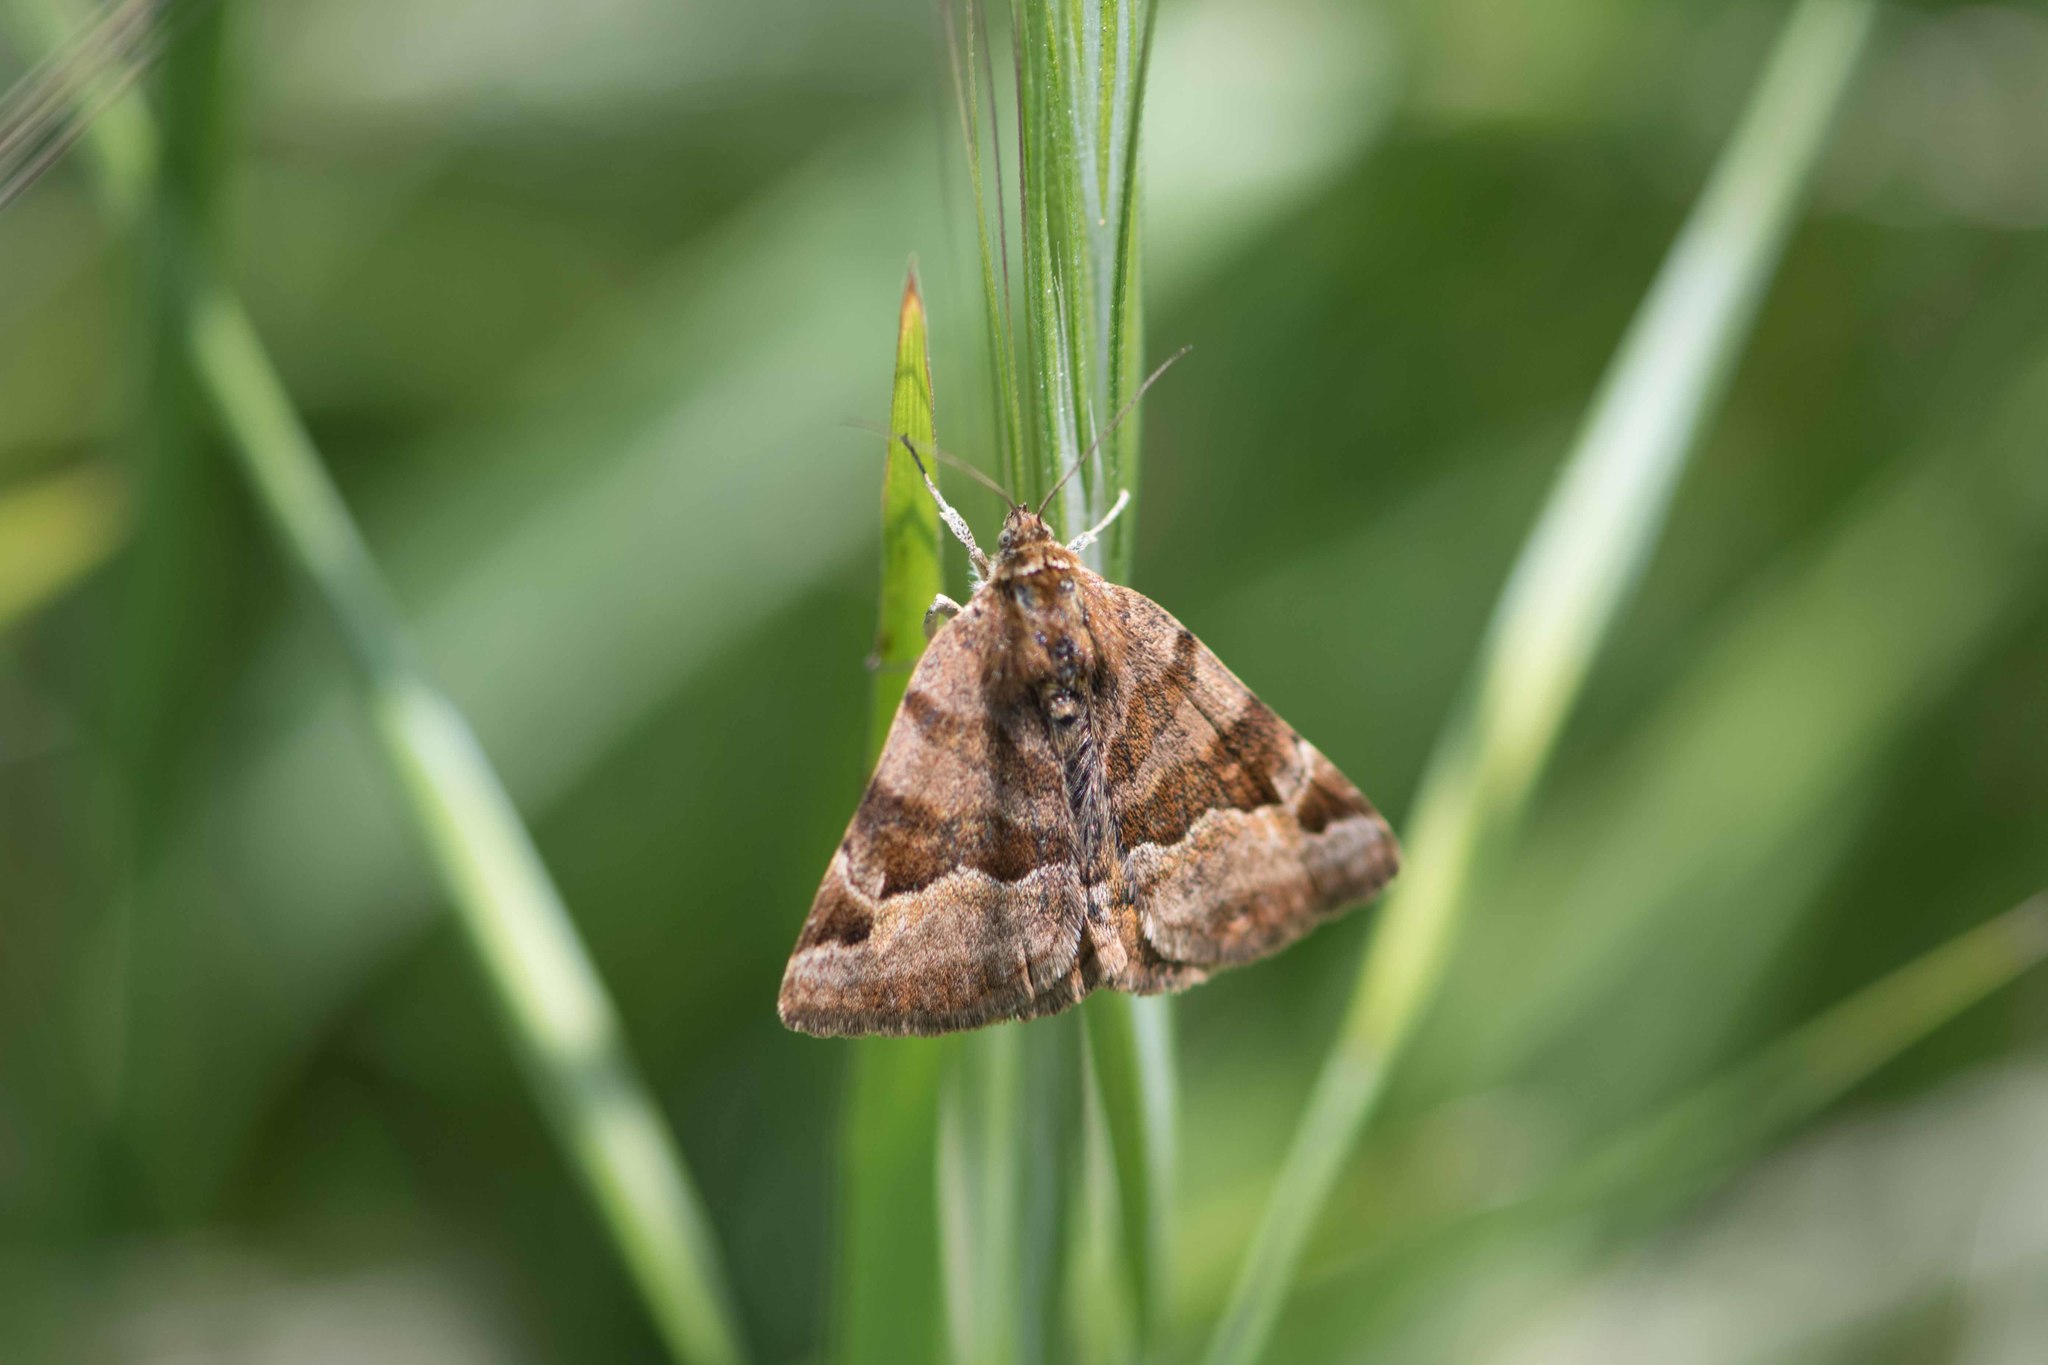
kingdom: Animalia
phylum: Arthropoda
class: Insecta
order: Lepidoptera
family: Erebidae
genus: Euclidia
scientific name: Euclidia glyphica
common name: Burnet companion
